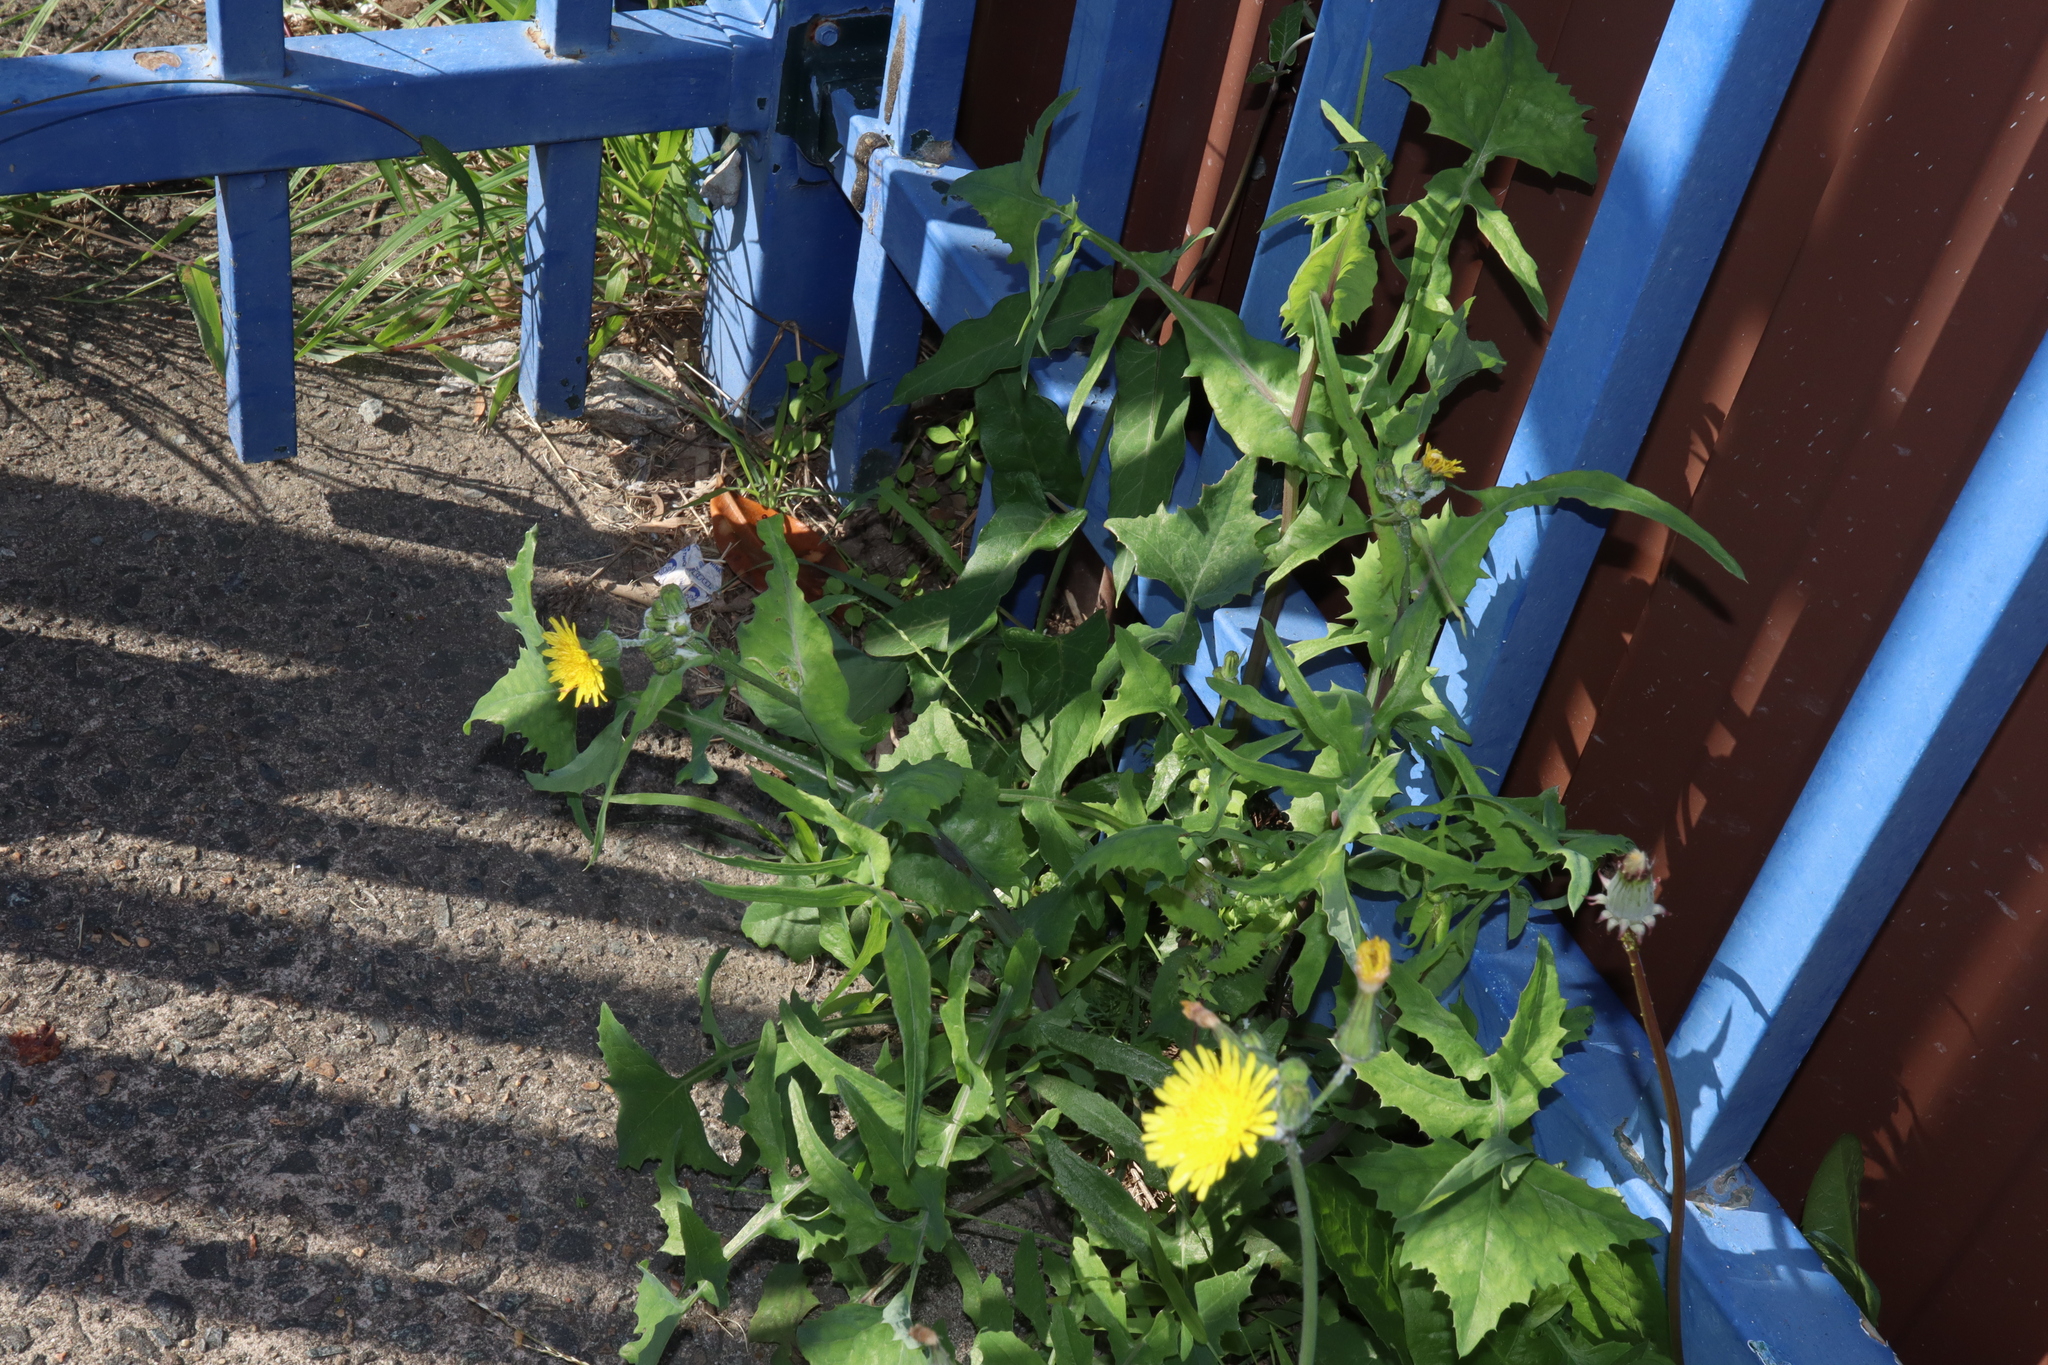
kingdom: Plantae
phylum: Tracheophyta
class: Magnoliopsida
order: Asterales
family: Asteraceae
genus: Sonchus
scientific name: Sonchus oleraceus
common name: Common sowthistle
